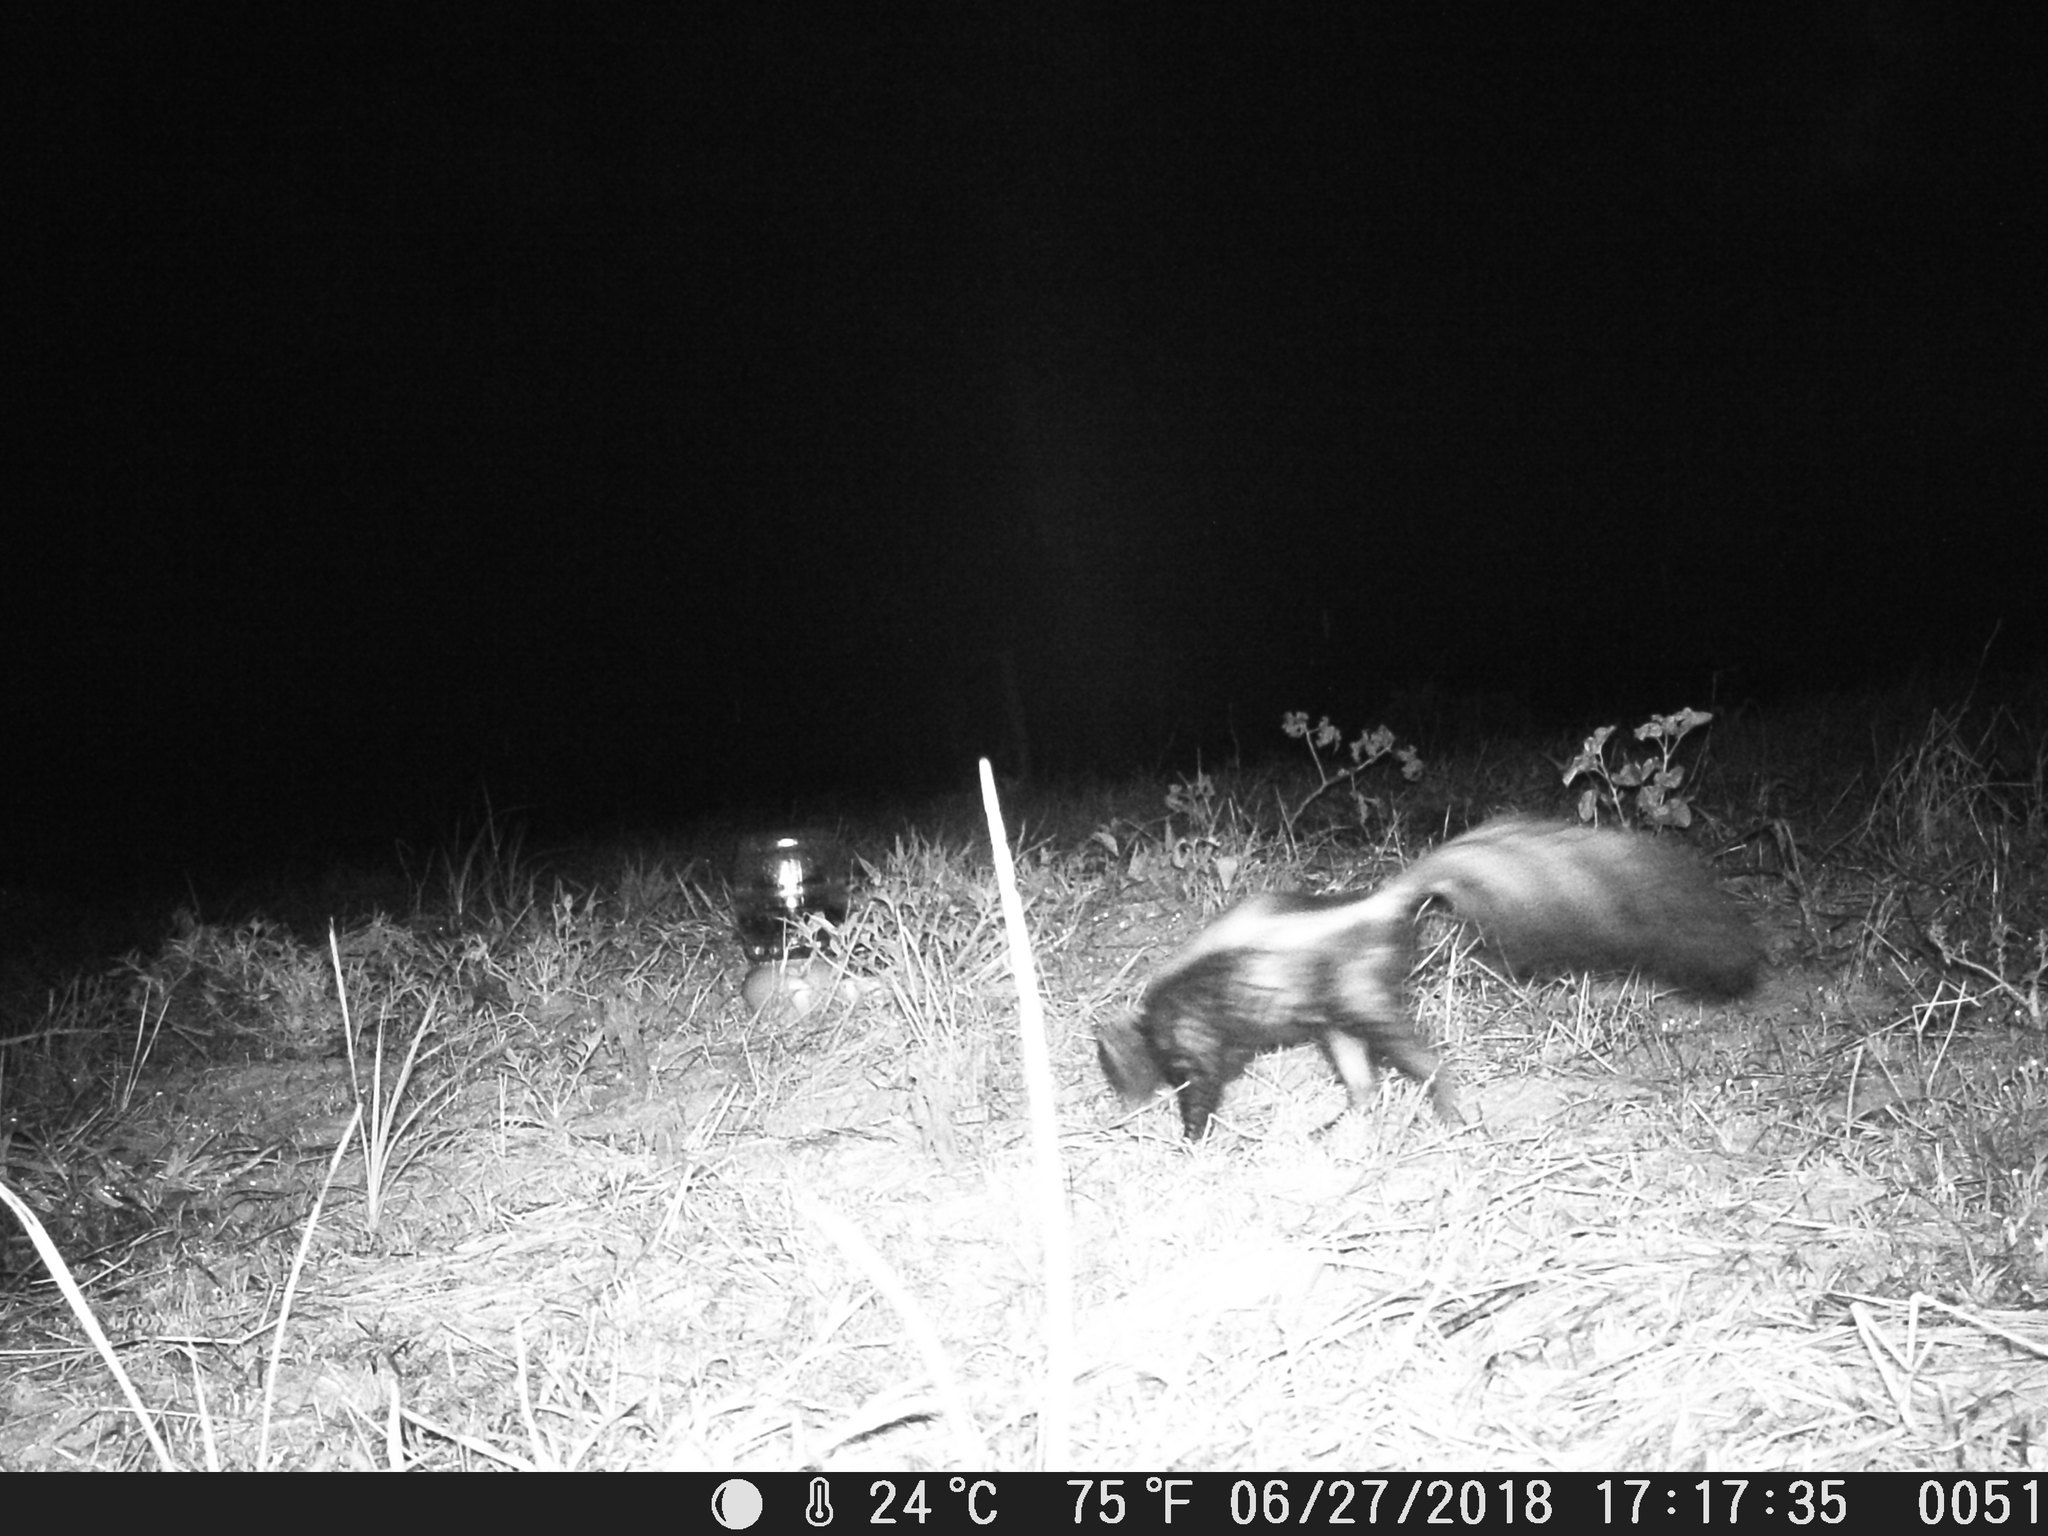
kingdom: Animalia
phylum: Chordata
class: Mammalia
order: Carnivora
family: Mephitidae
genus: Mephitis
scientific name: Mephitis mephitis
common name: Striped skunk
